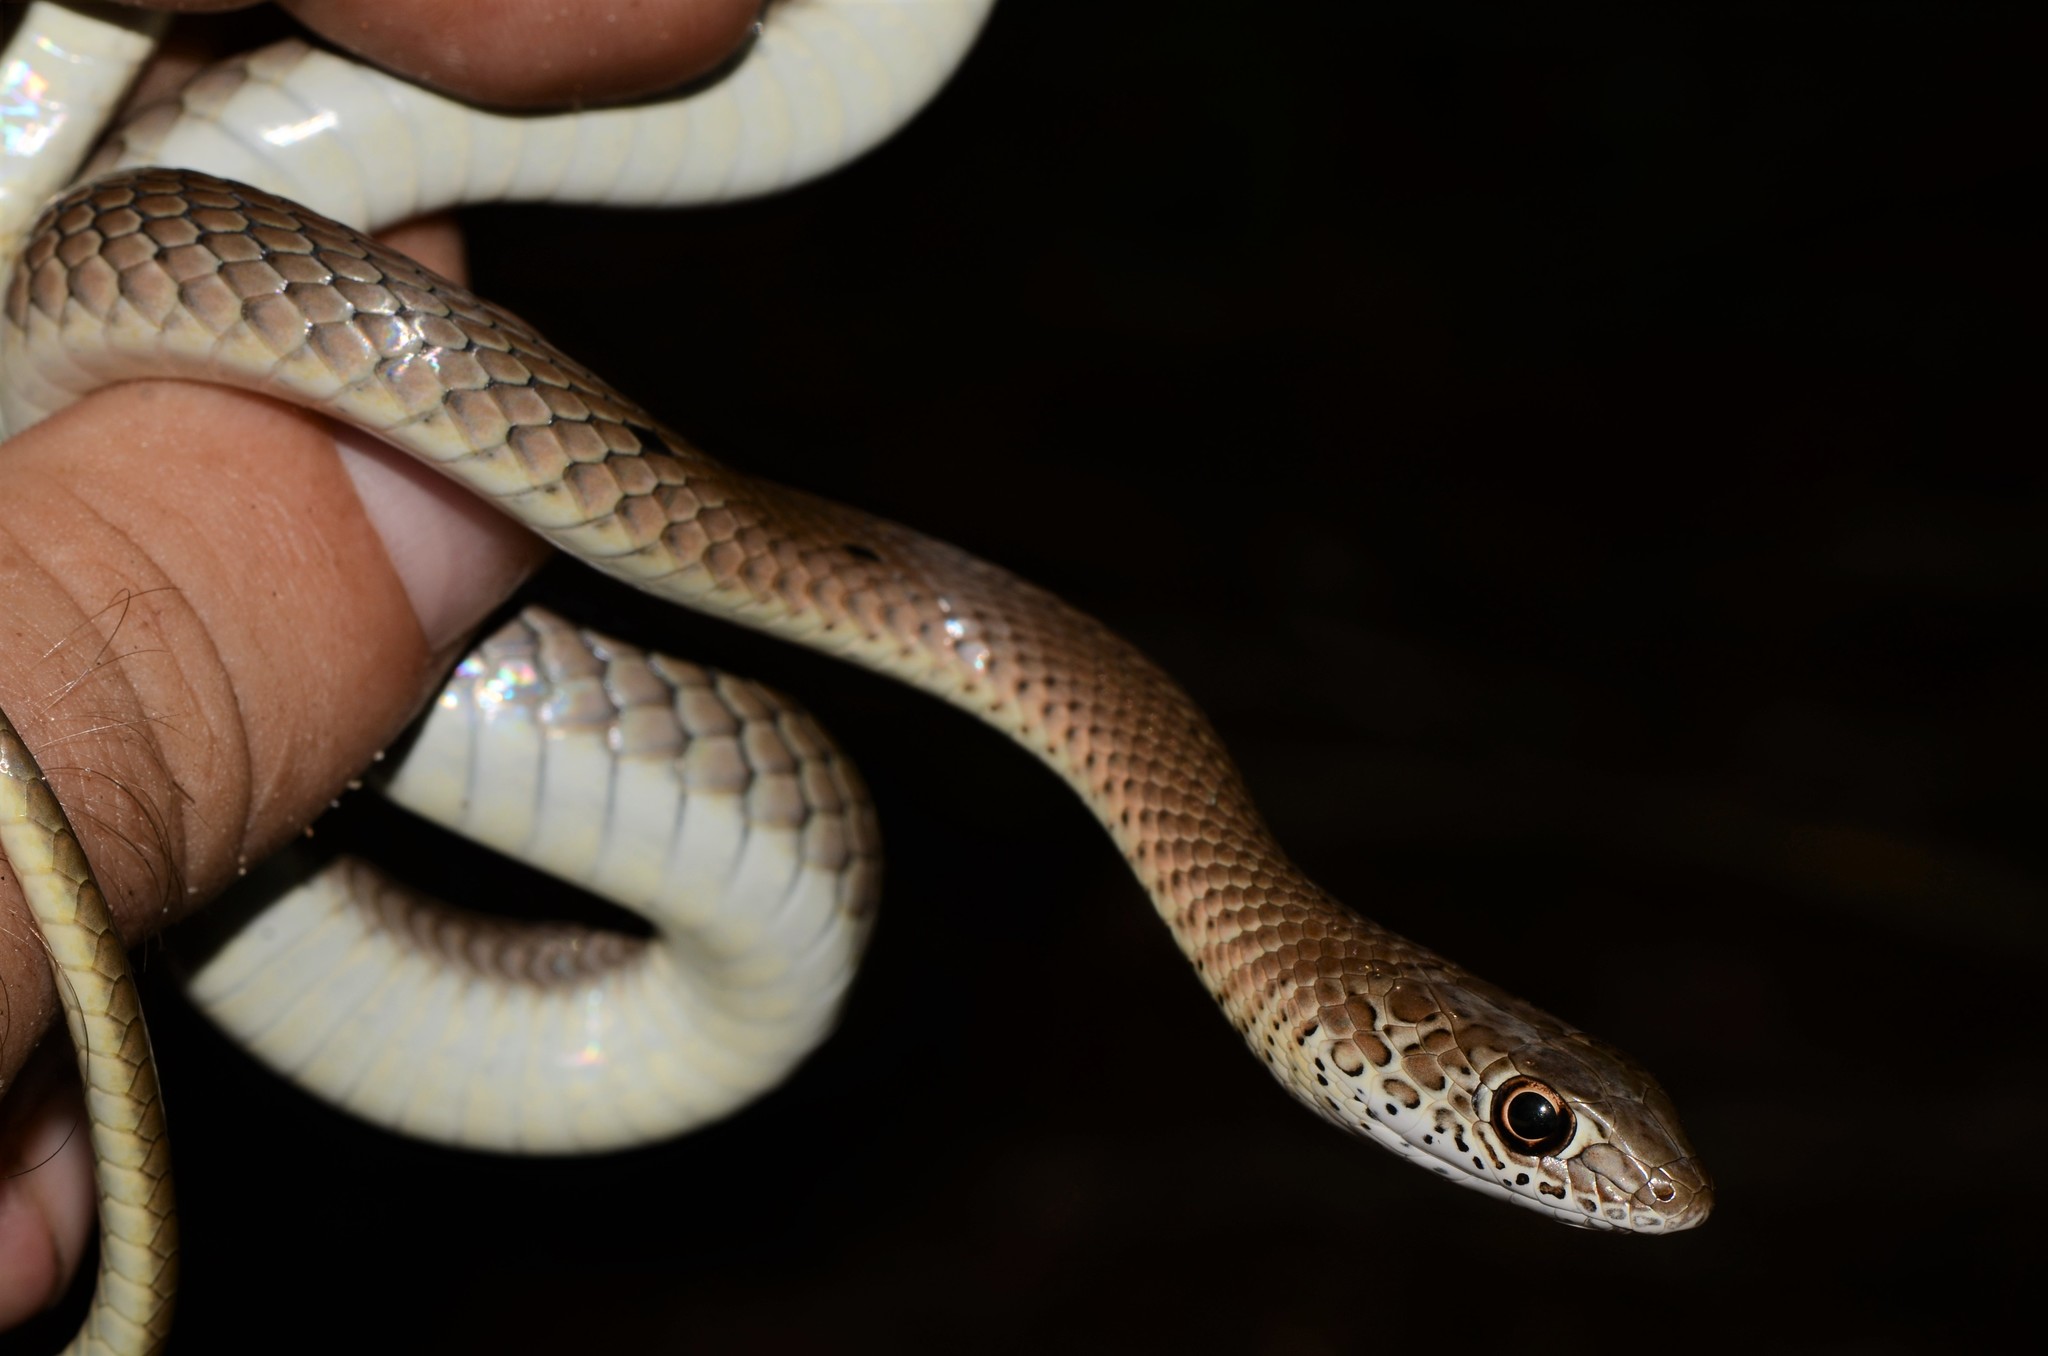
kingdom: Animalia
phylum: Chordata
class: Squamata
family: Psammophiidae
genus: Psammophis
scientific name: Psammophis mossambicus
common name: Olive grass snake
